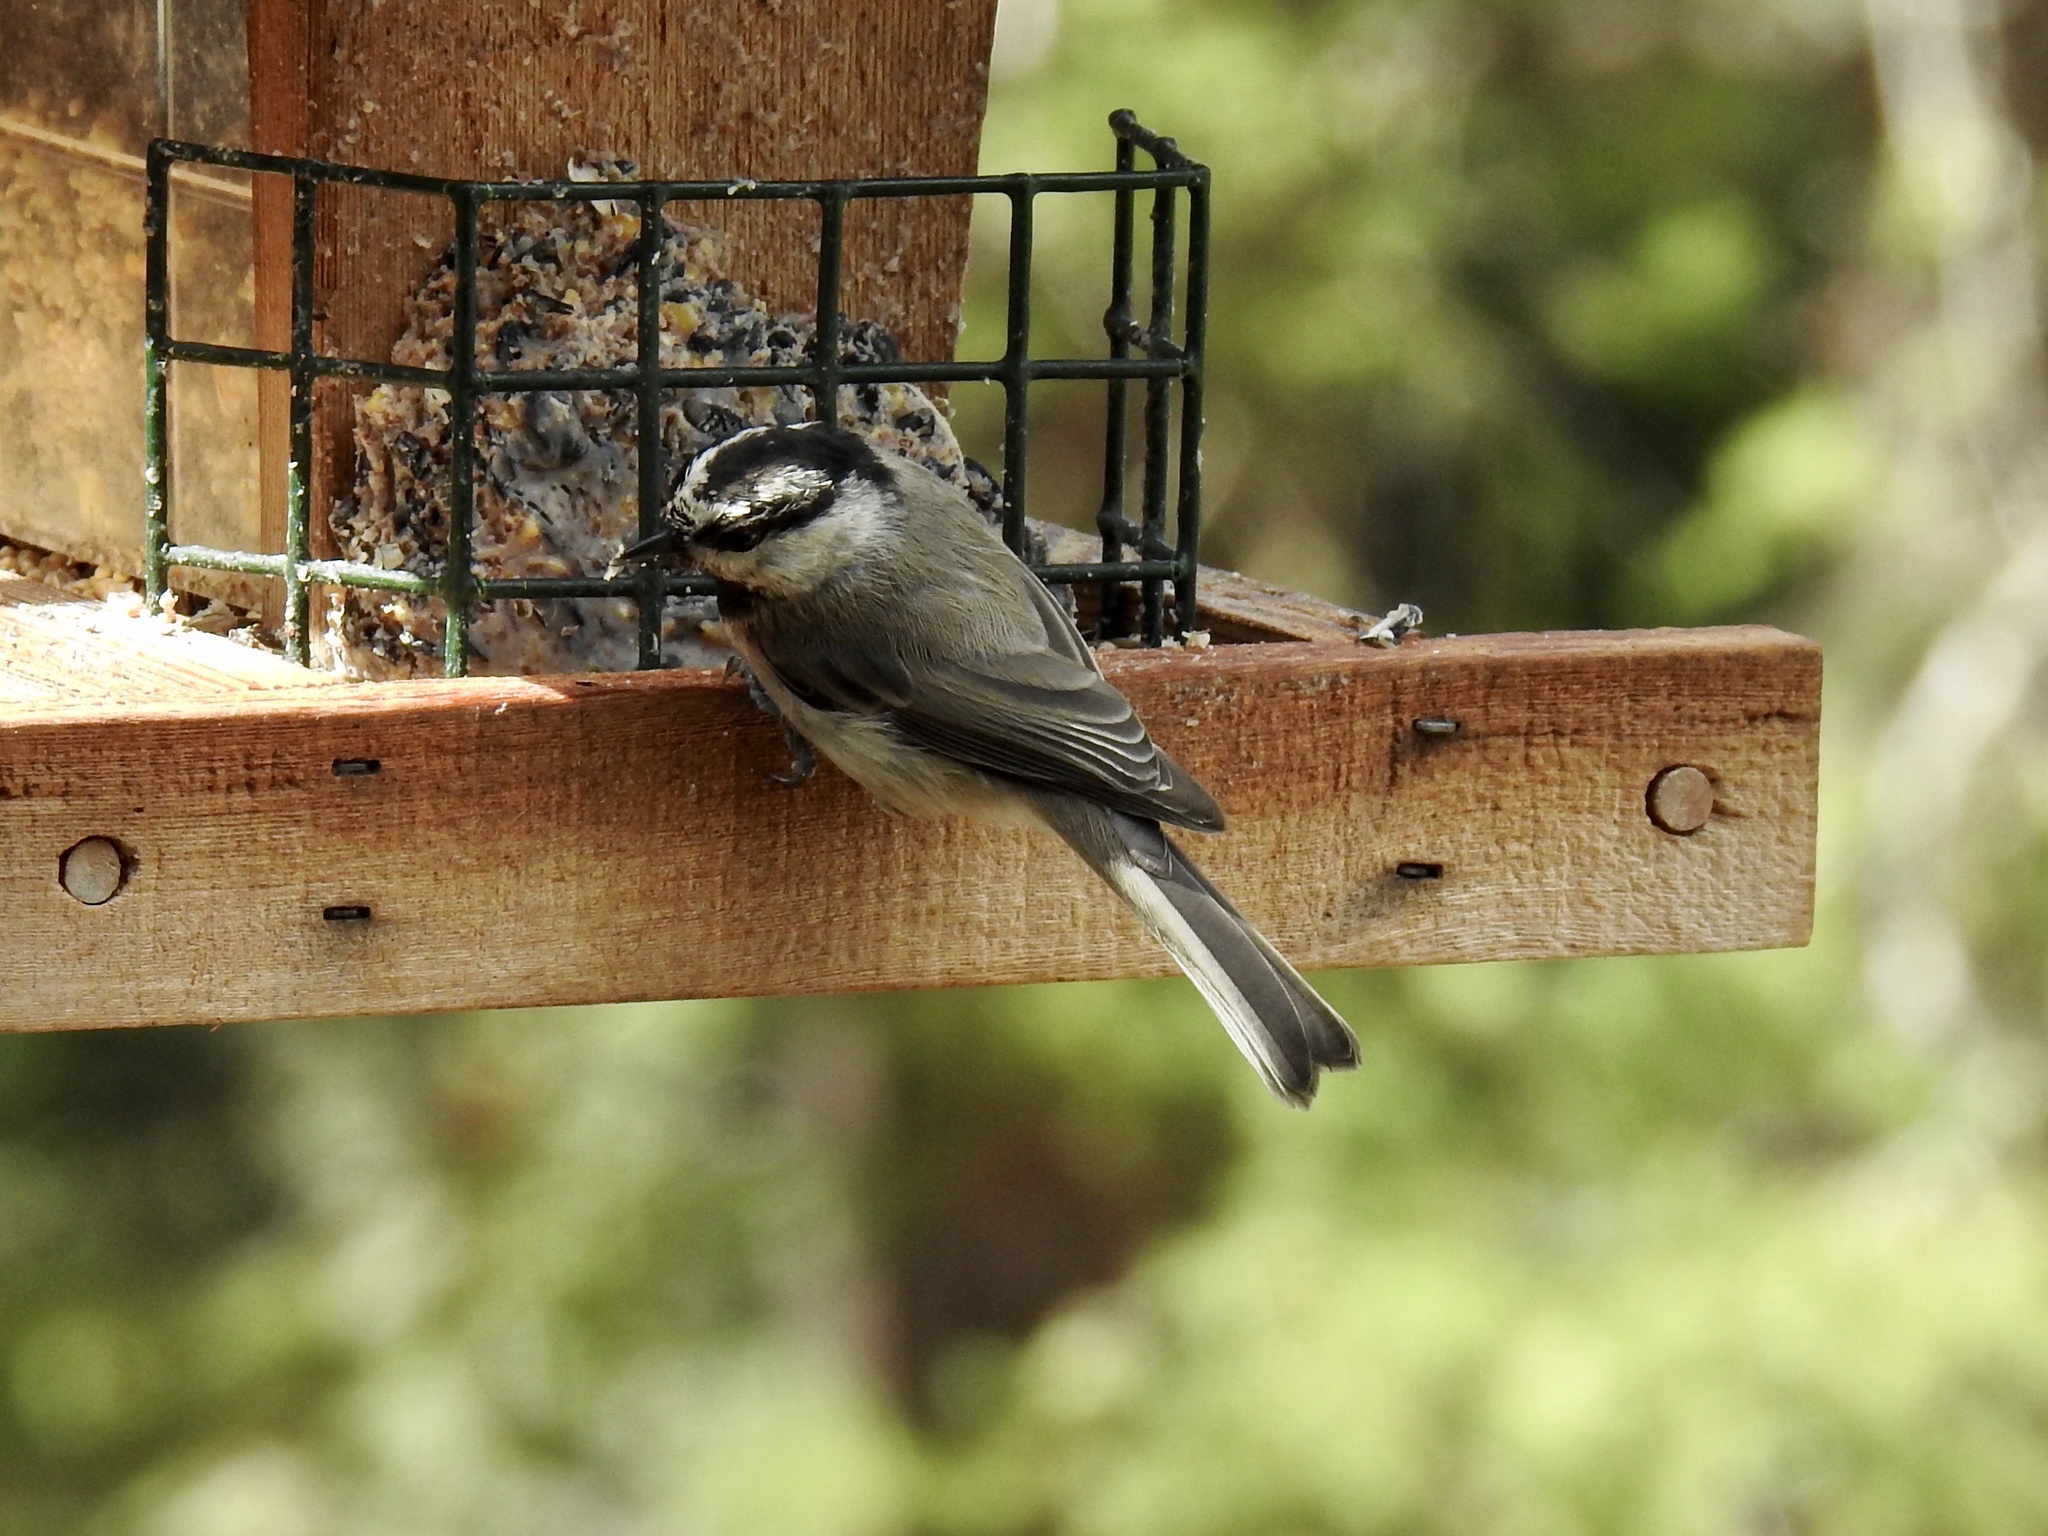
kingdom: Animalia
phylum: Chordata
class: Aves
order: Passeriformes
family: Paridae
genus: Poecile
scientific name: Poecile gambeli
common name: Mountain chickadee
